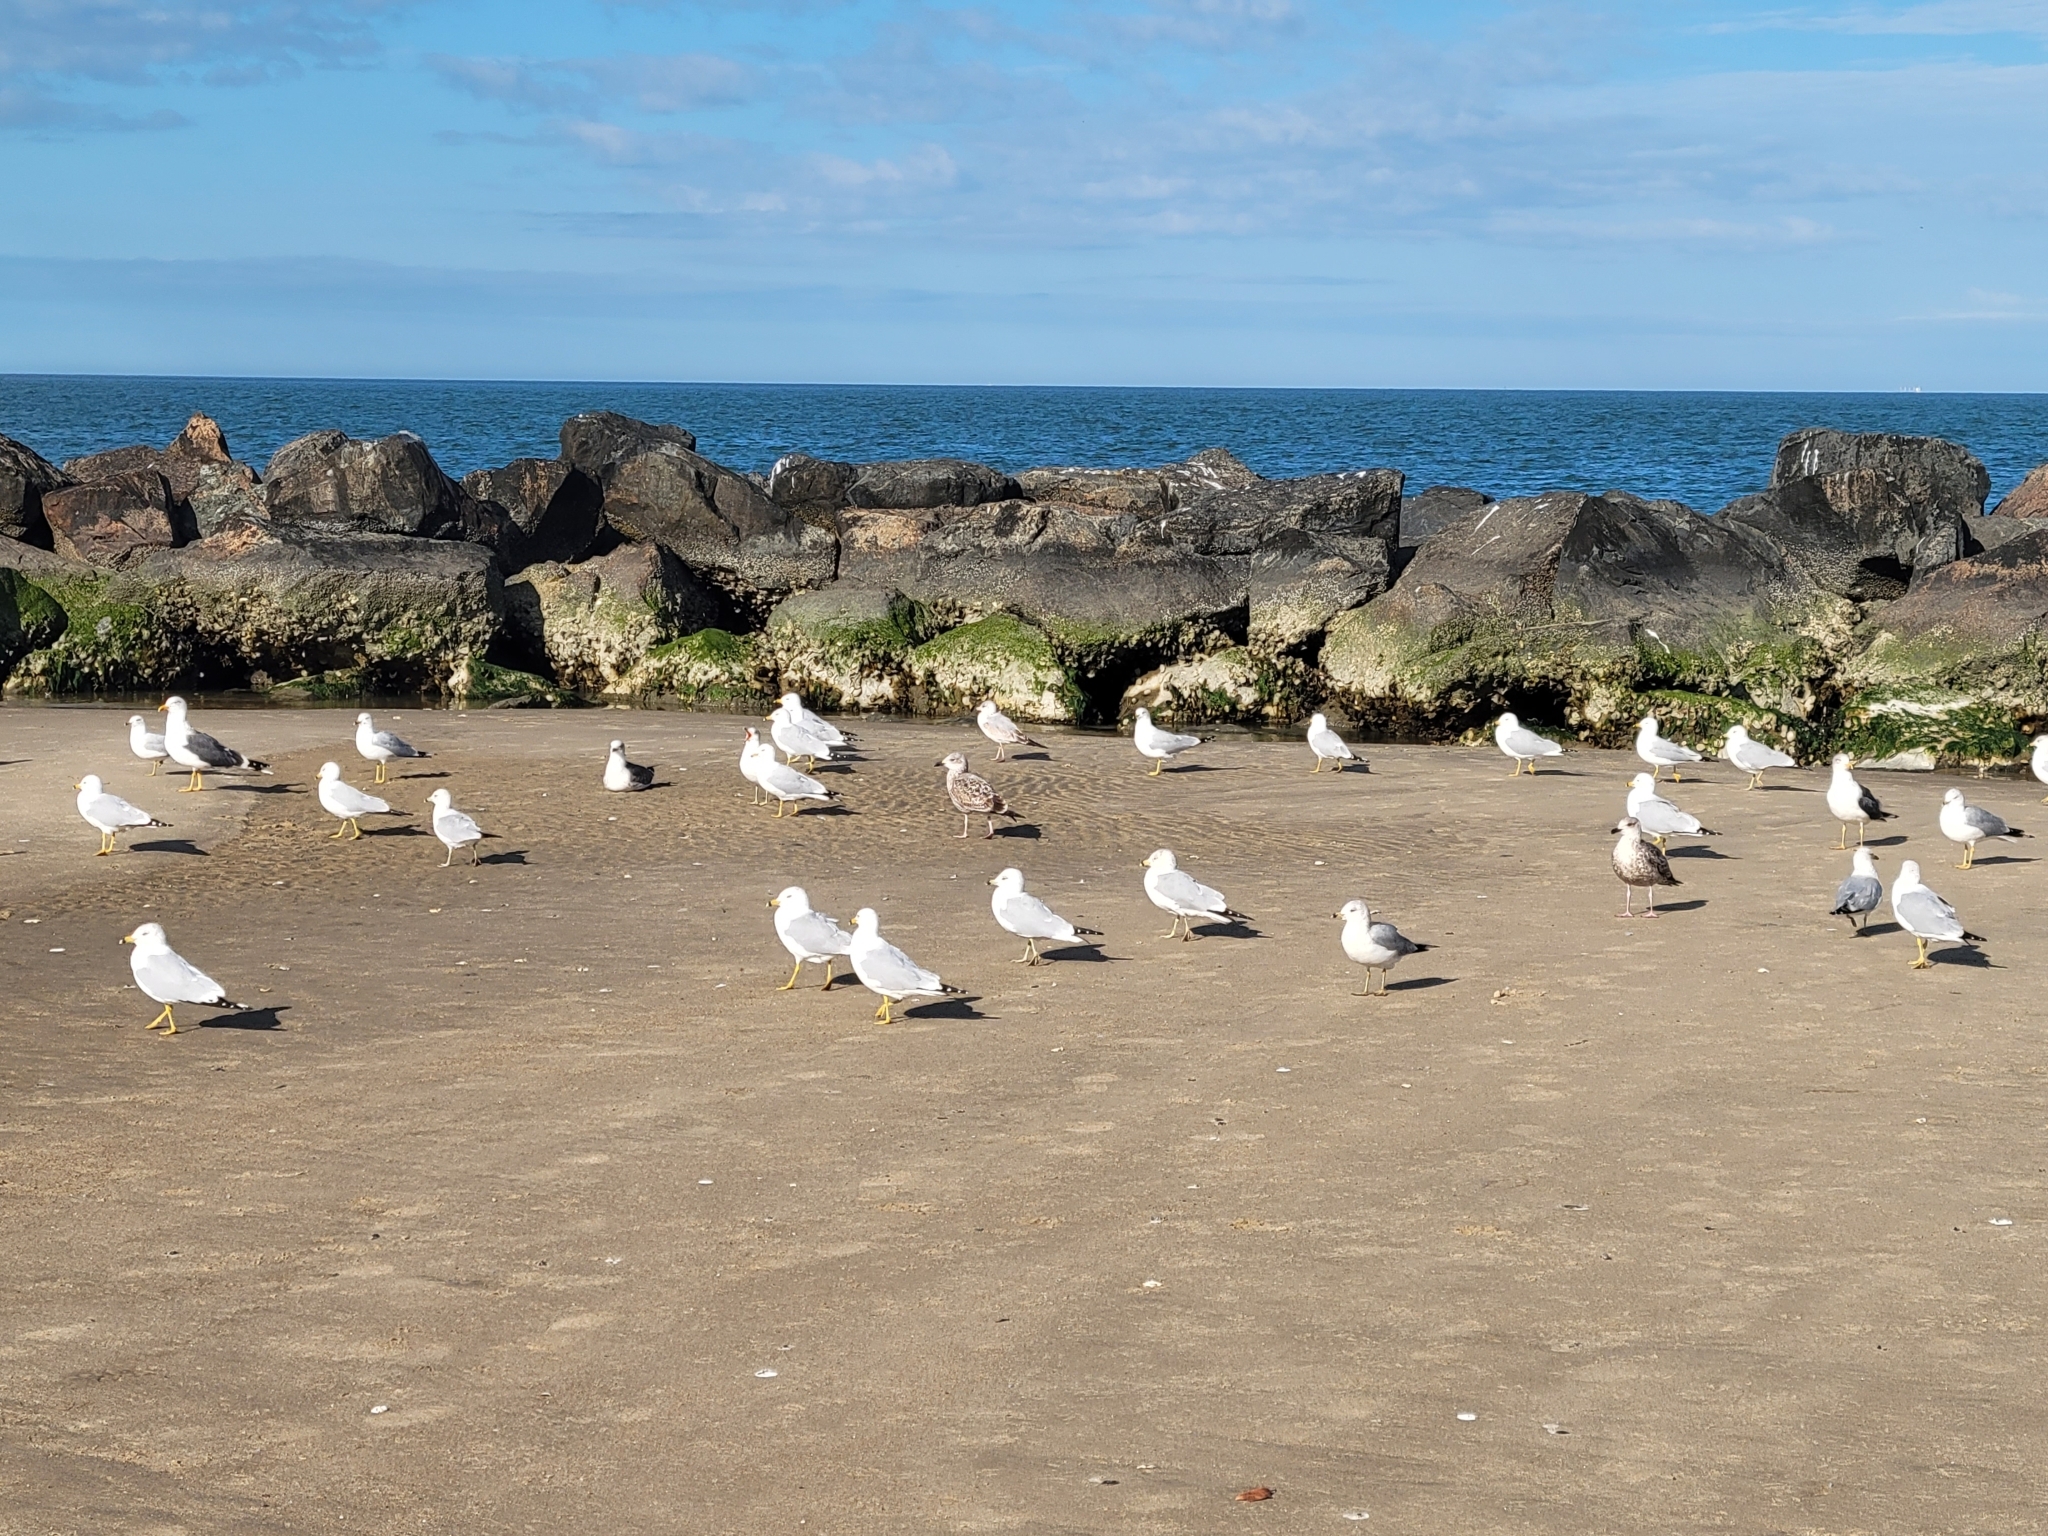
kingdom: Animalia
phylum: Chordata
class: Aves
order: Charadriiformes
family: Laridae
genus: Larus
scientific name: Larus delawarensis
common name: Ring-billed gull
